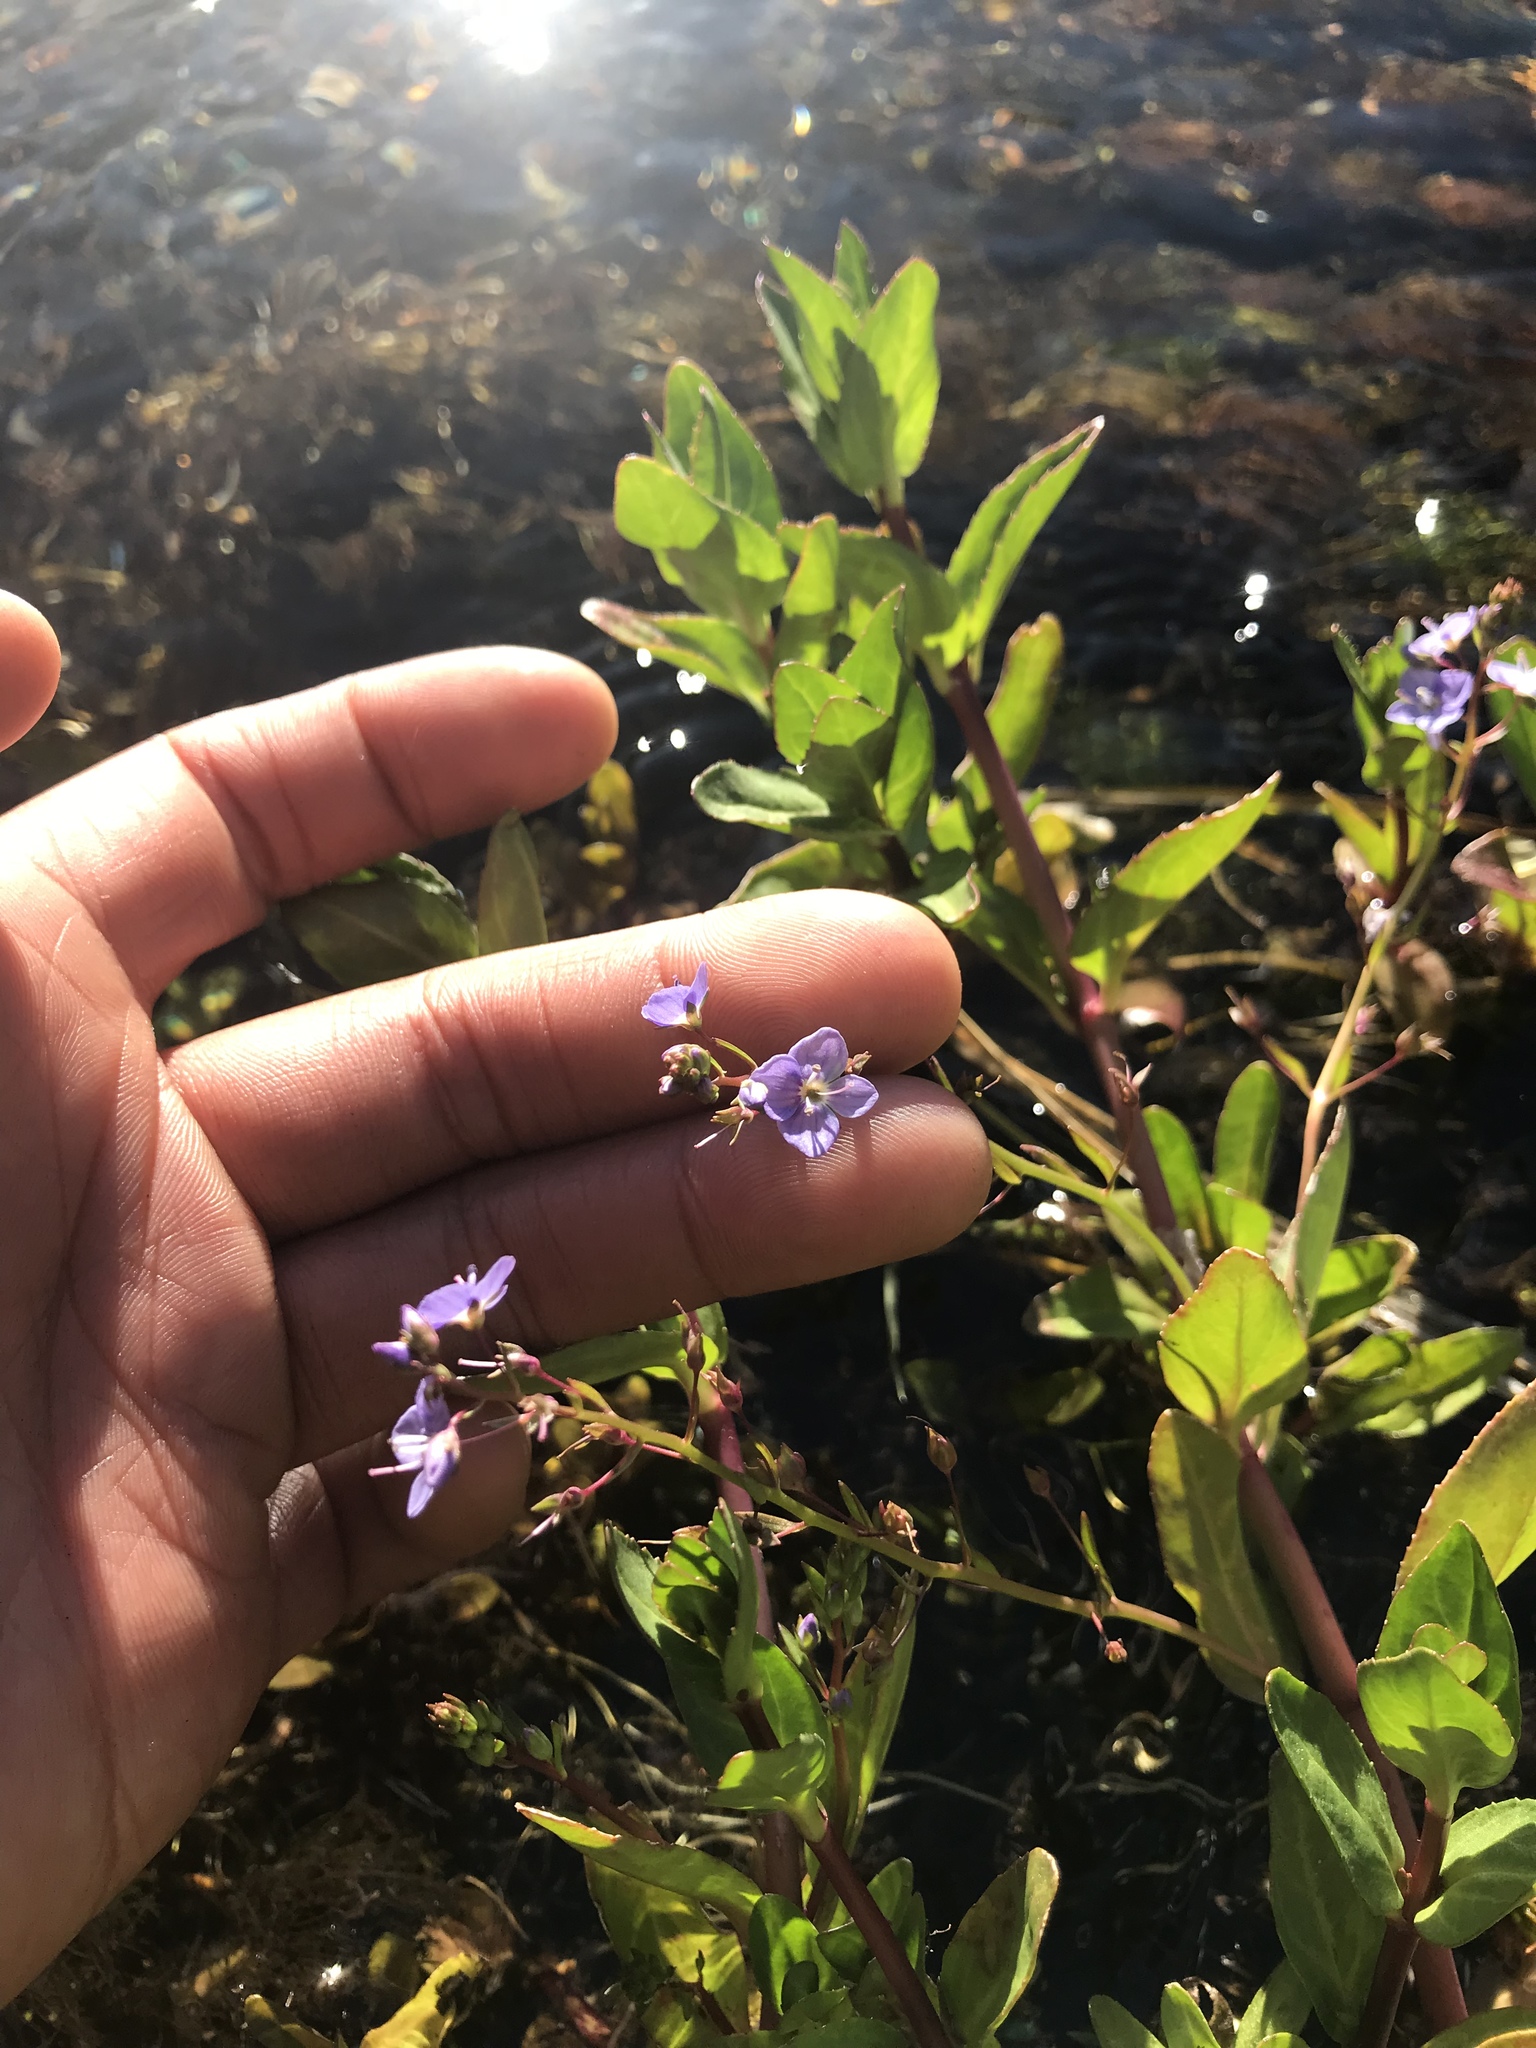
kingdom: Plantae
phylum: Tracheophyta
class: Magnoliopsida
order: Lamiales
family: Plantaginaceae
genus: Veronica
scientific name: Veronica americana
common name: American brooklime
